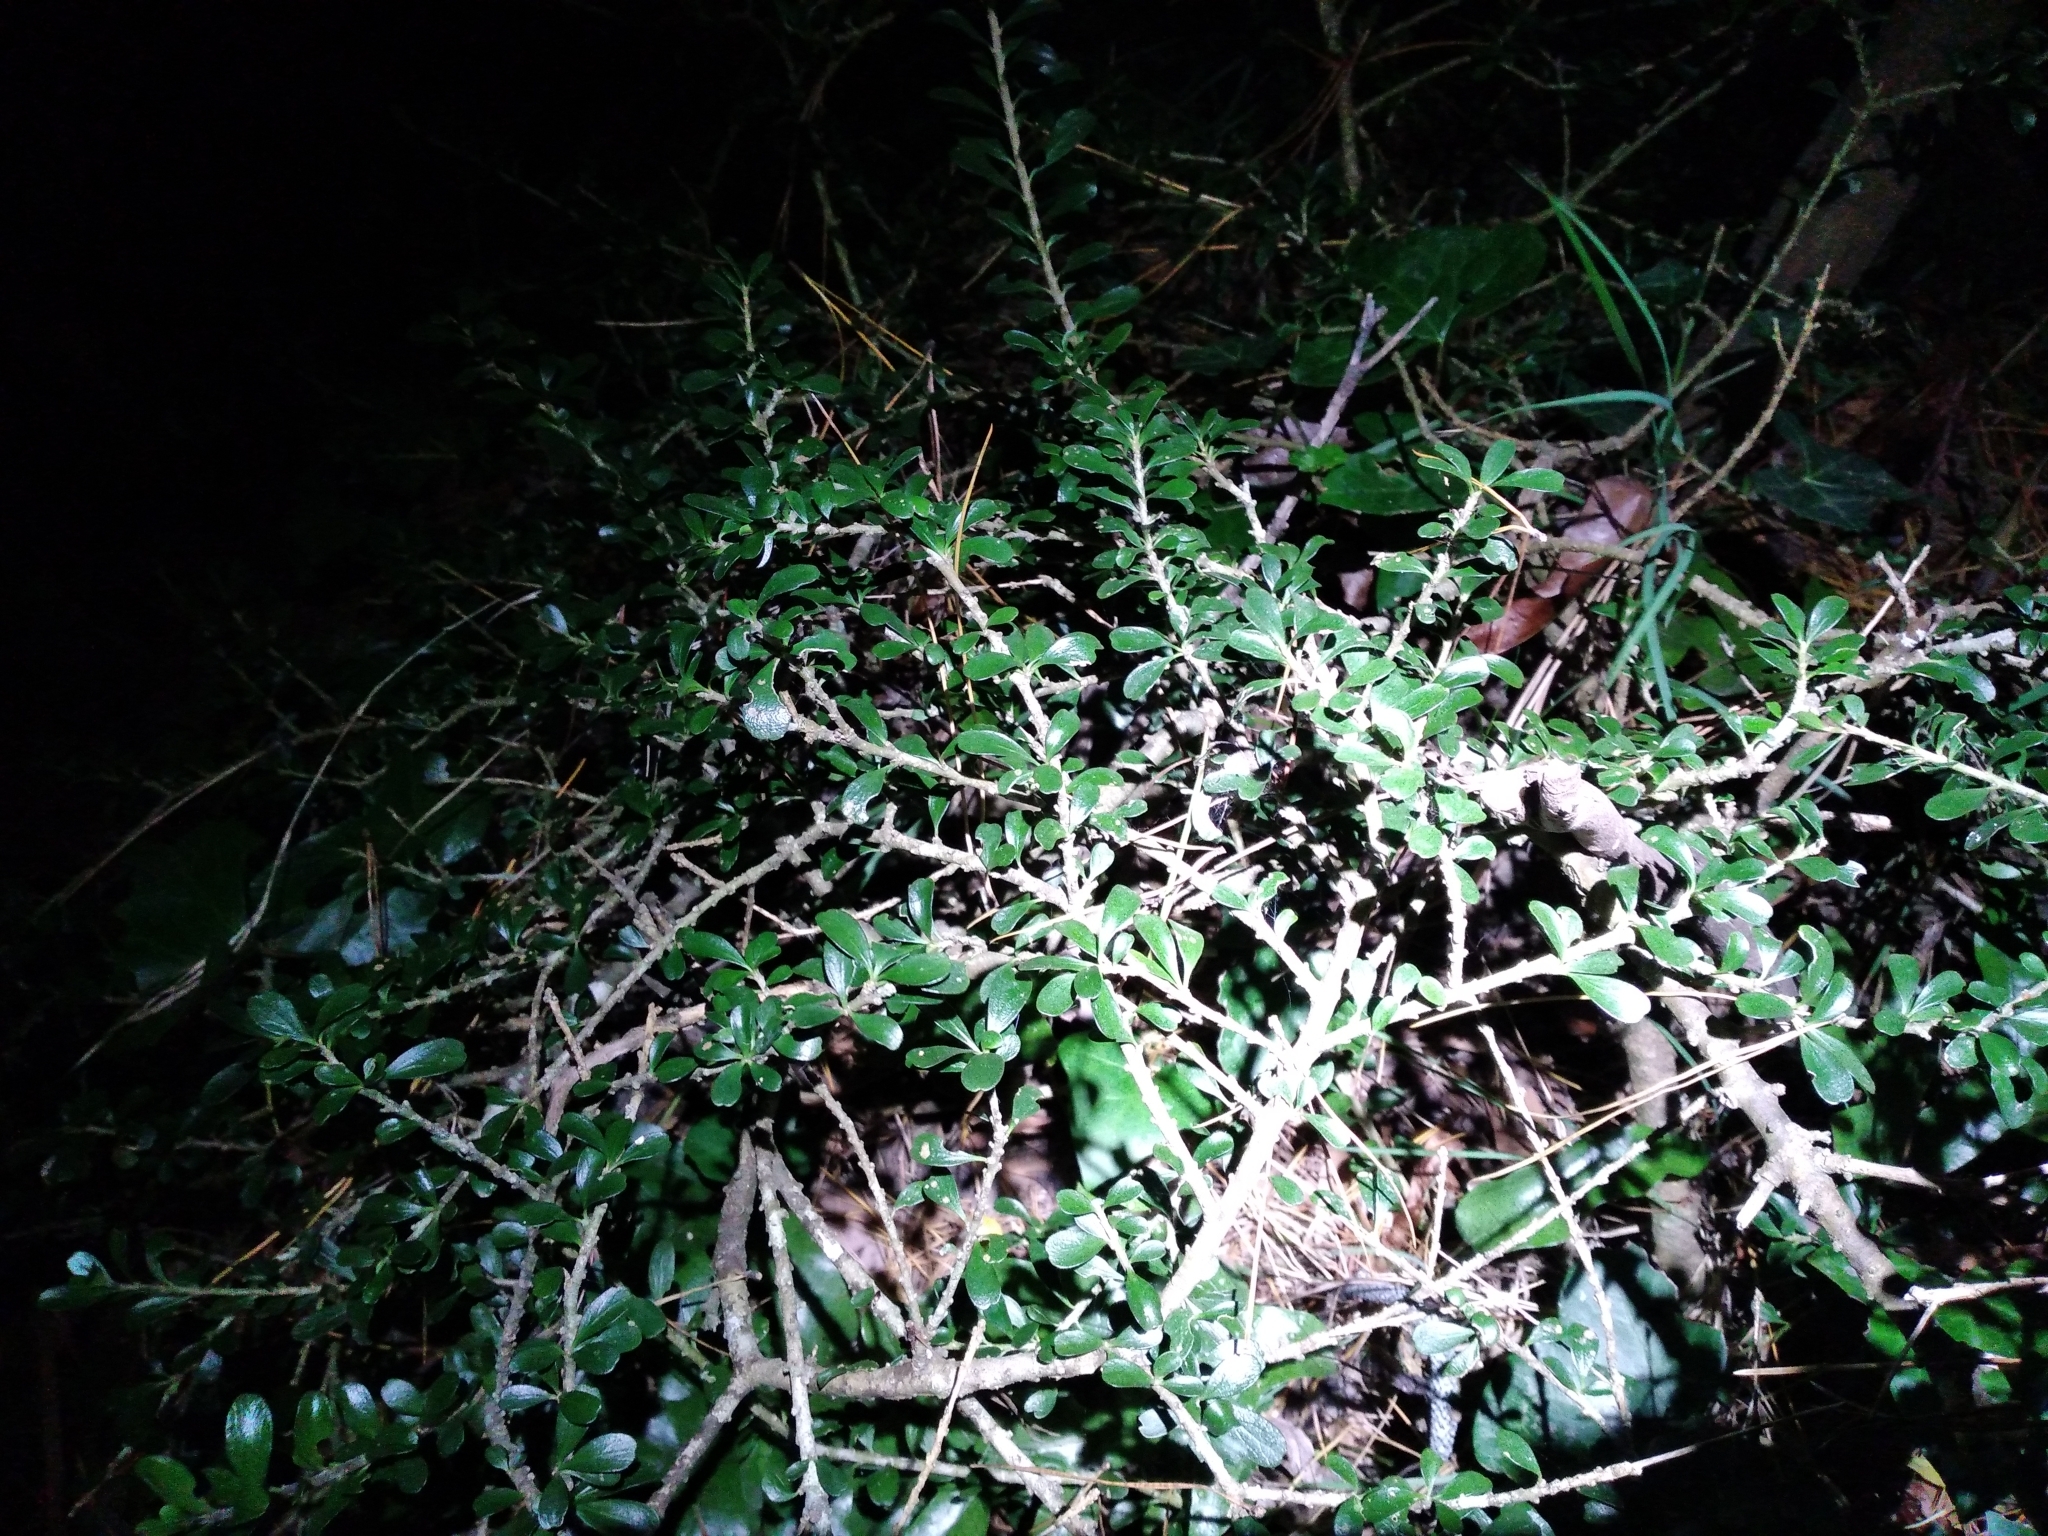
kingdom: Plantae
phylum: Tracheophyta
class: Magnoliopsida
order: Malpighiales
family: Violaceae
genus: Melicytus
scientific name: Melicytus crassifolius
